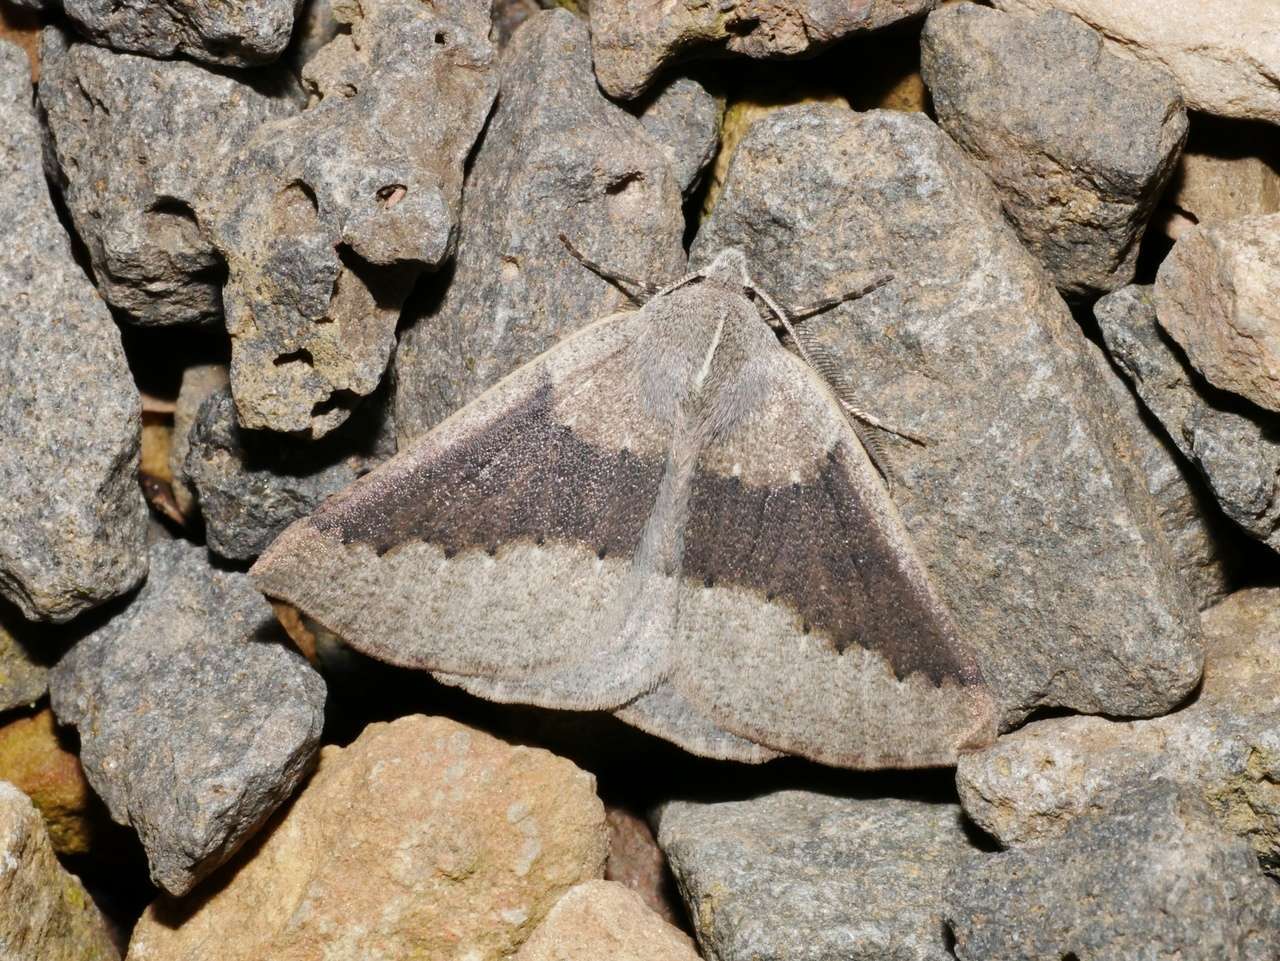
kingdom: Animalia
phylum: Arthropoda
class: Insecta
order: Lepidoptera
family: Geometridae
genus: Androchela
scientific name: Androchela milvaria
